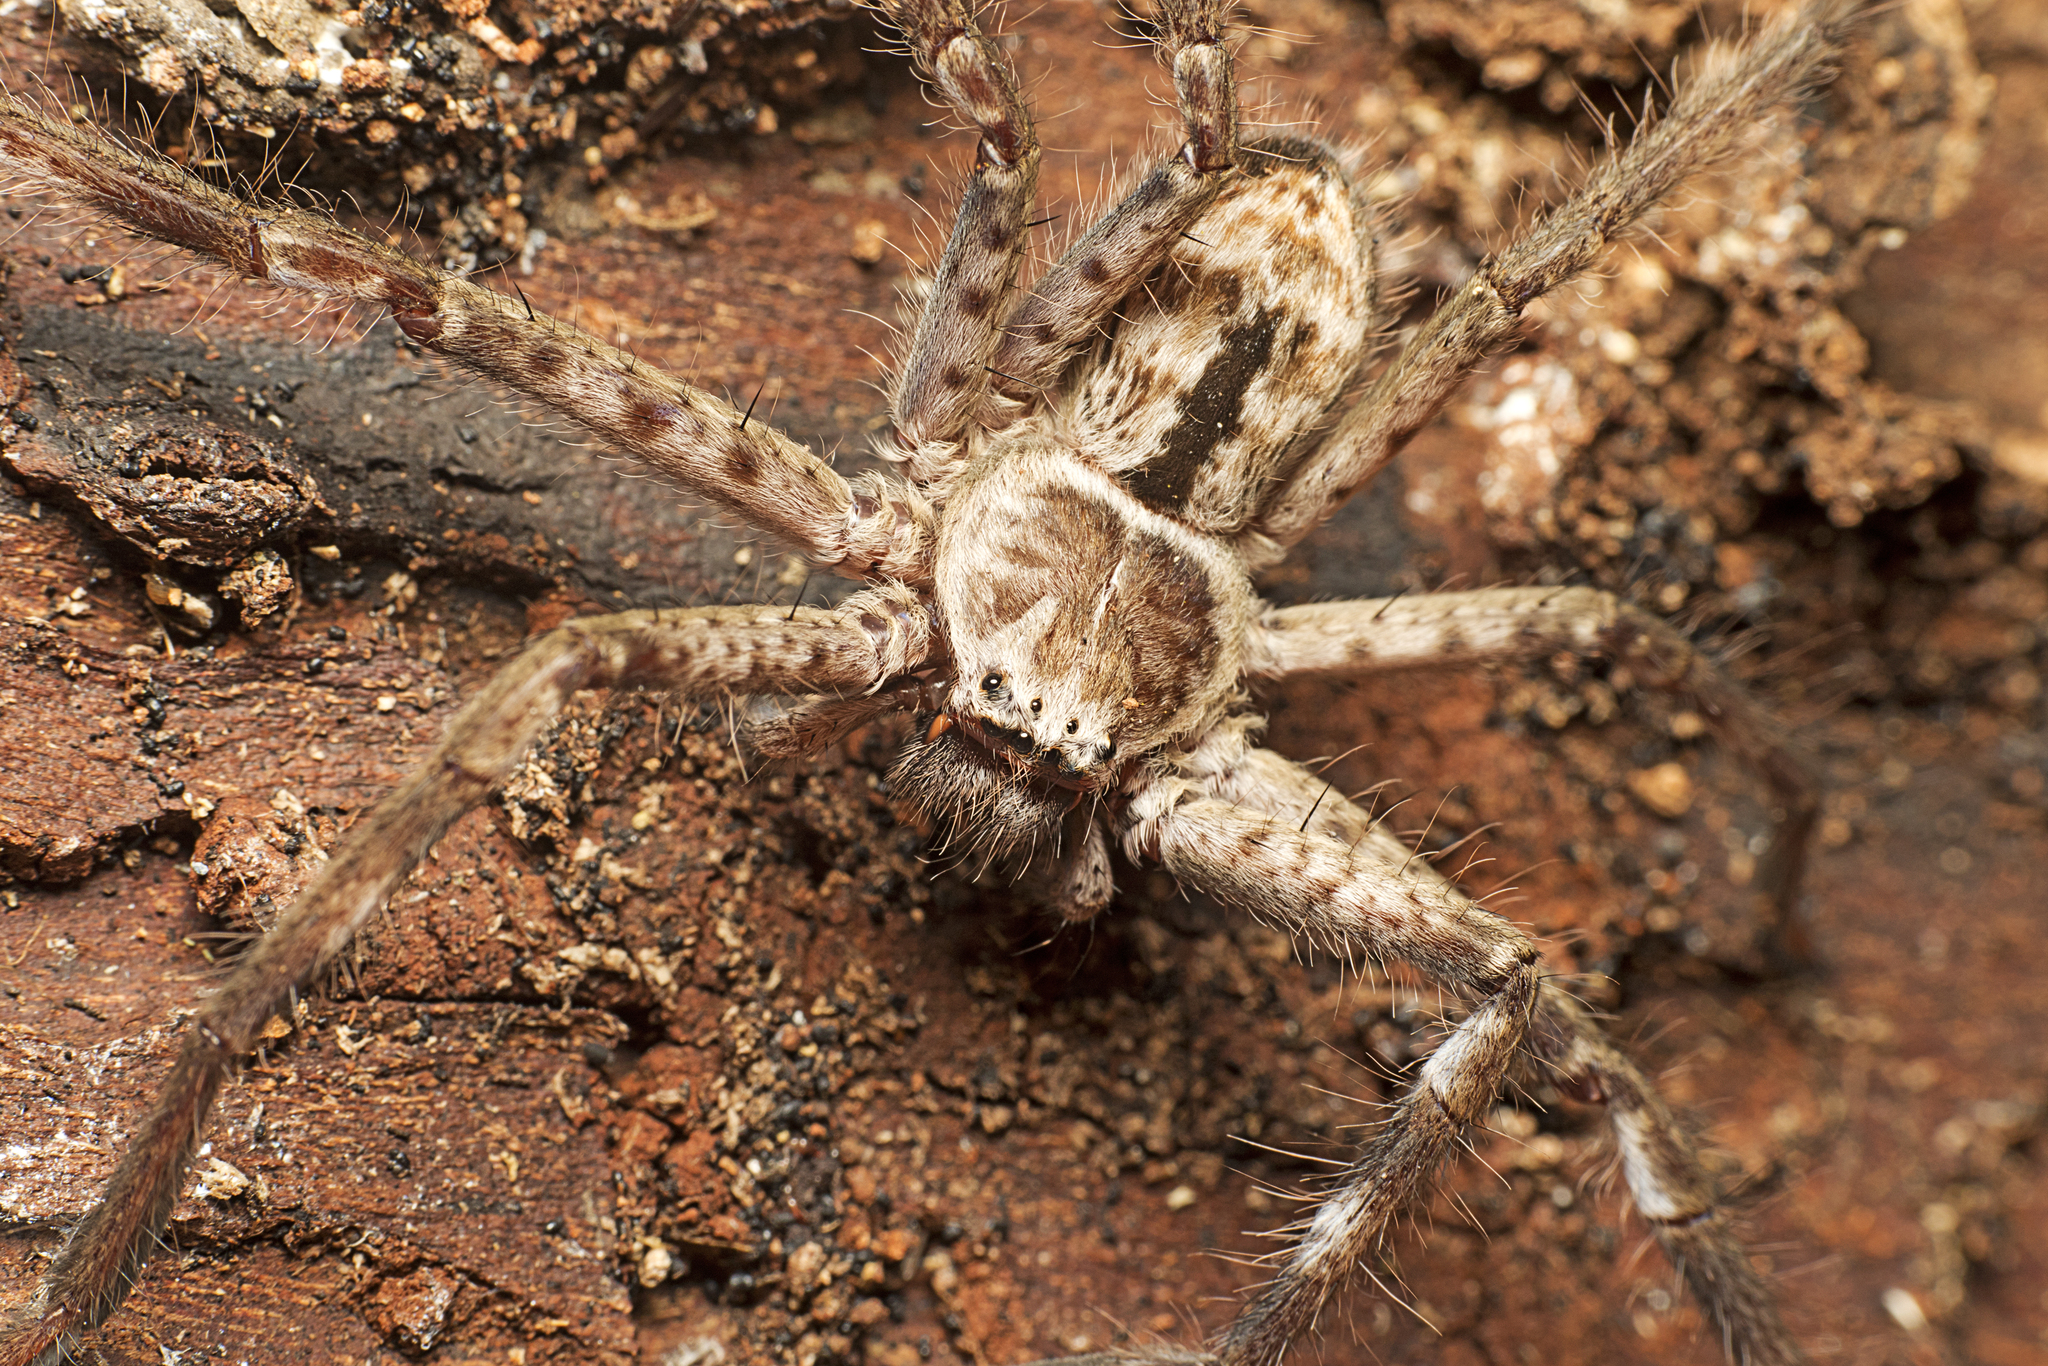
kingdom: Animalia
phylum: Arthropoda
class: Arachnida
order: Araneae
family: Sparassidae
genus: Holconia
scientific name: Holconia immanis
